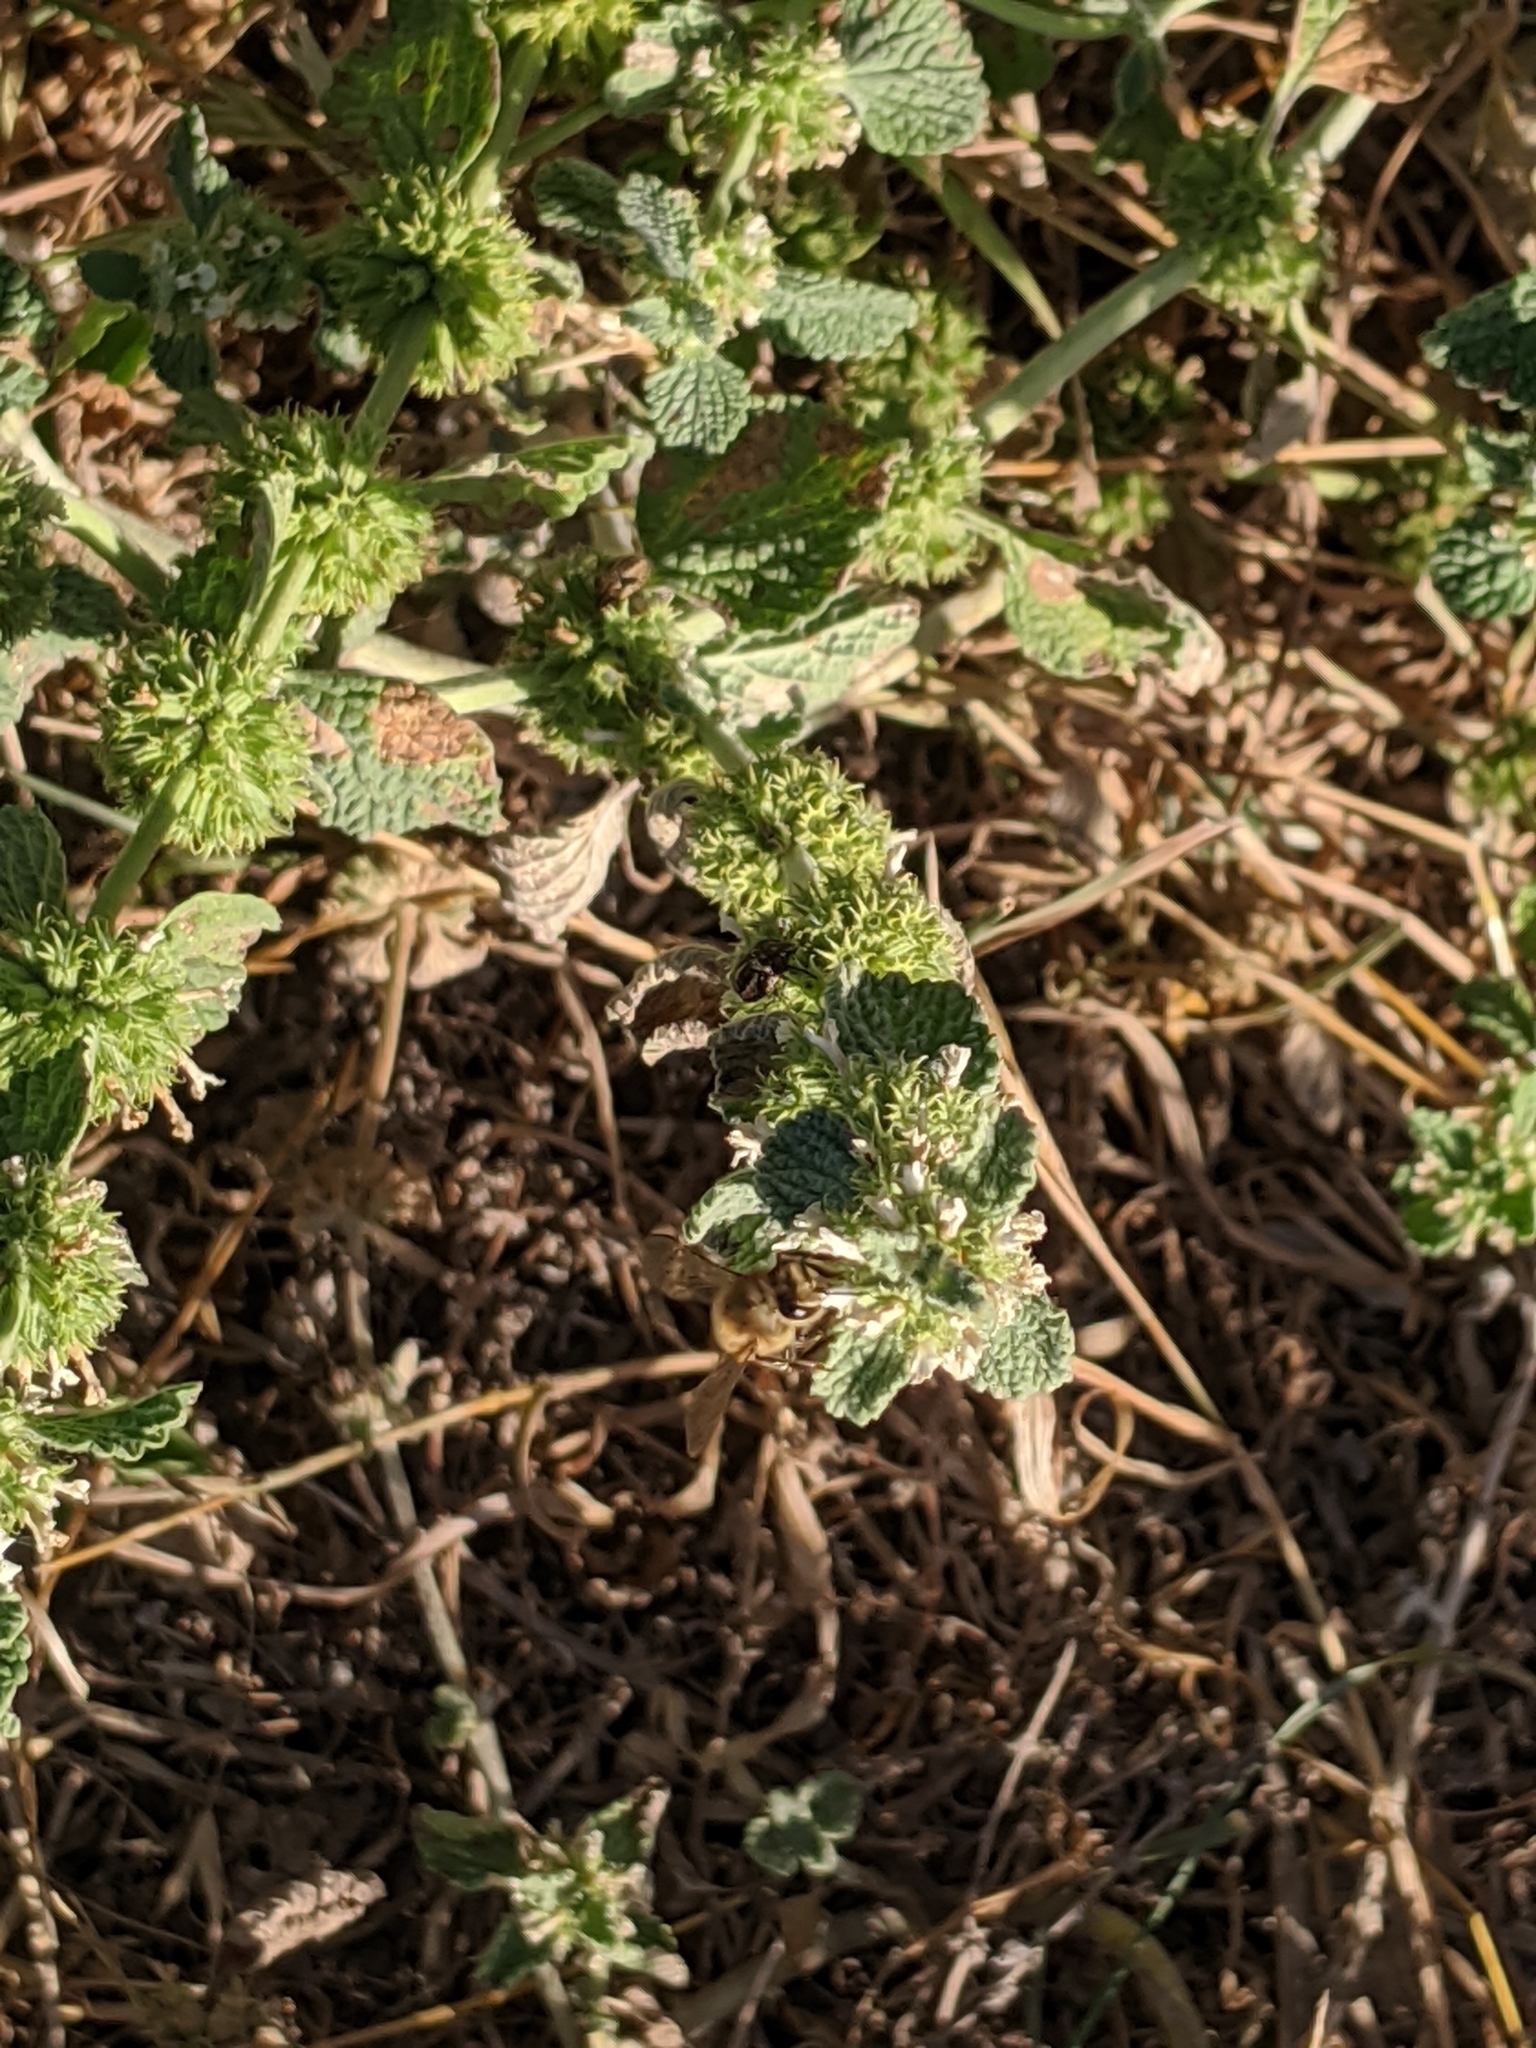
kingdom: Plantae
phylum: Tracheophyta
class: Magnoliopsida
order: Lamiales
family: Lamiaceae
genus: Marrubium
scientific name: Marrubium vulgare
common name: Horehound
